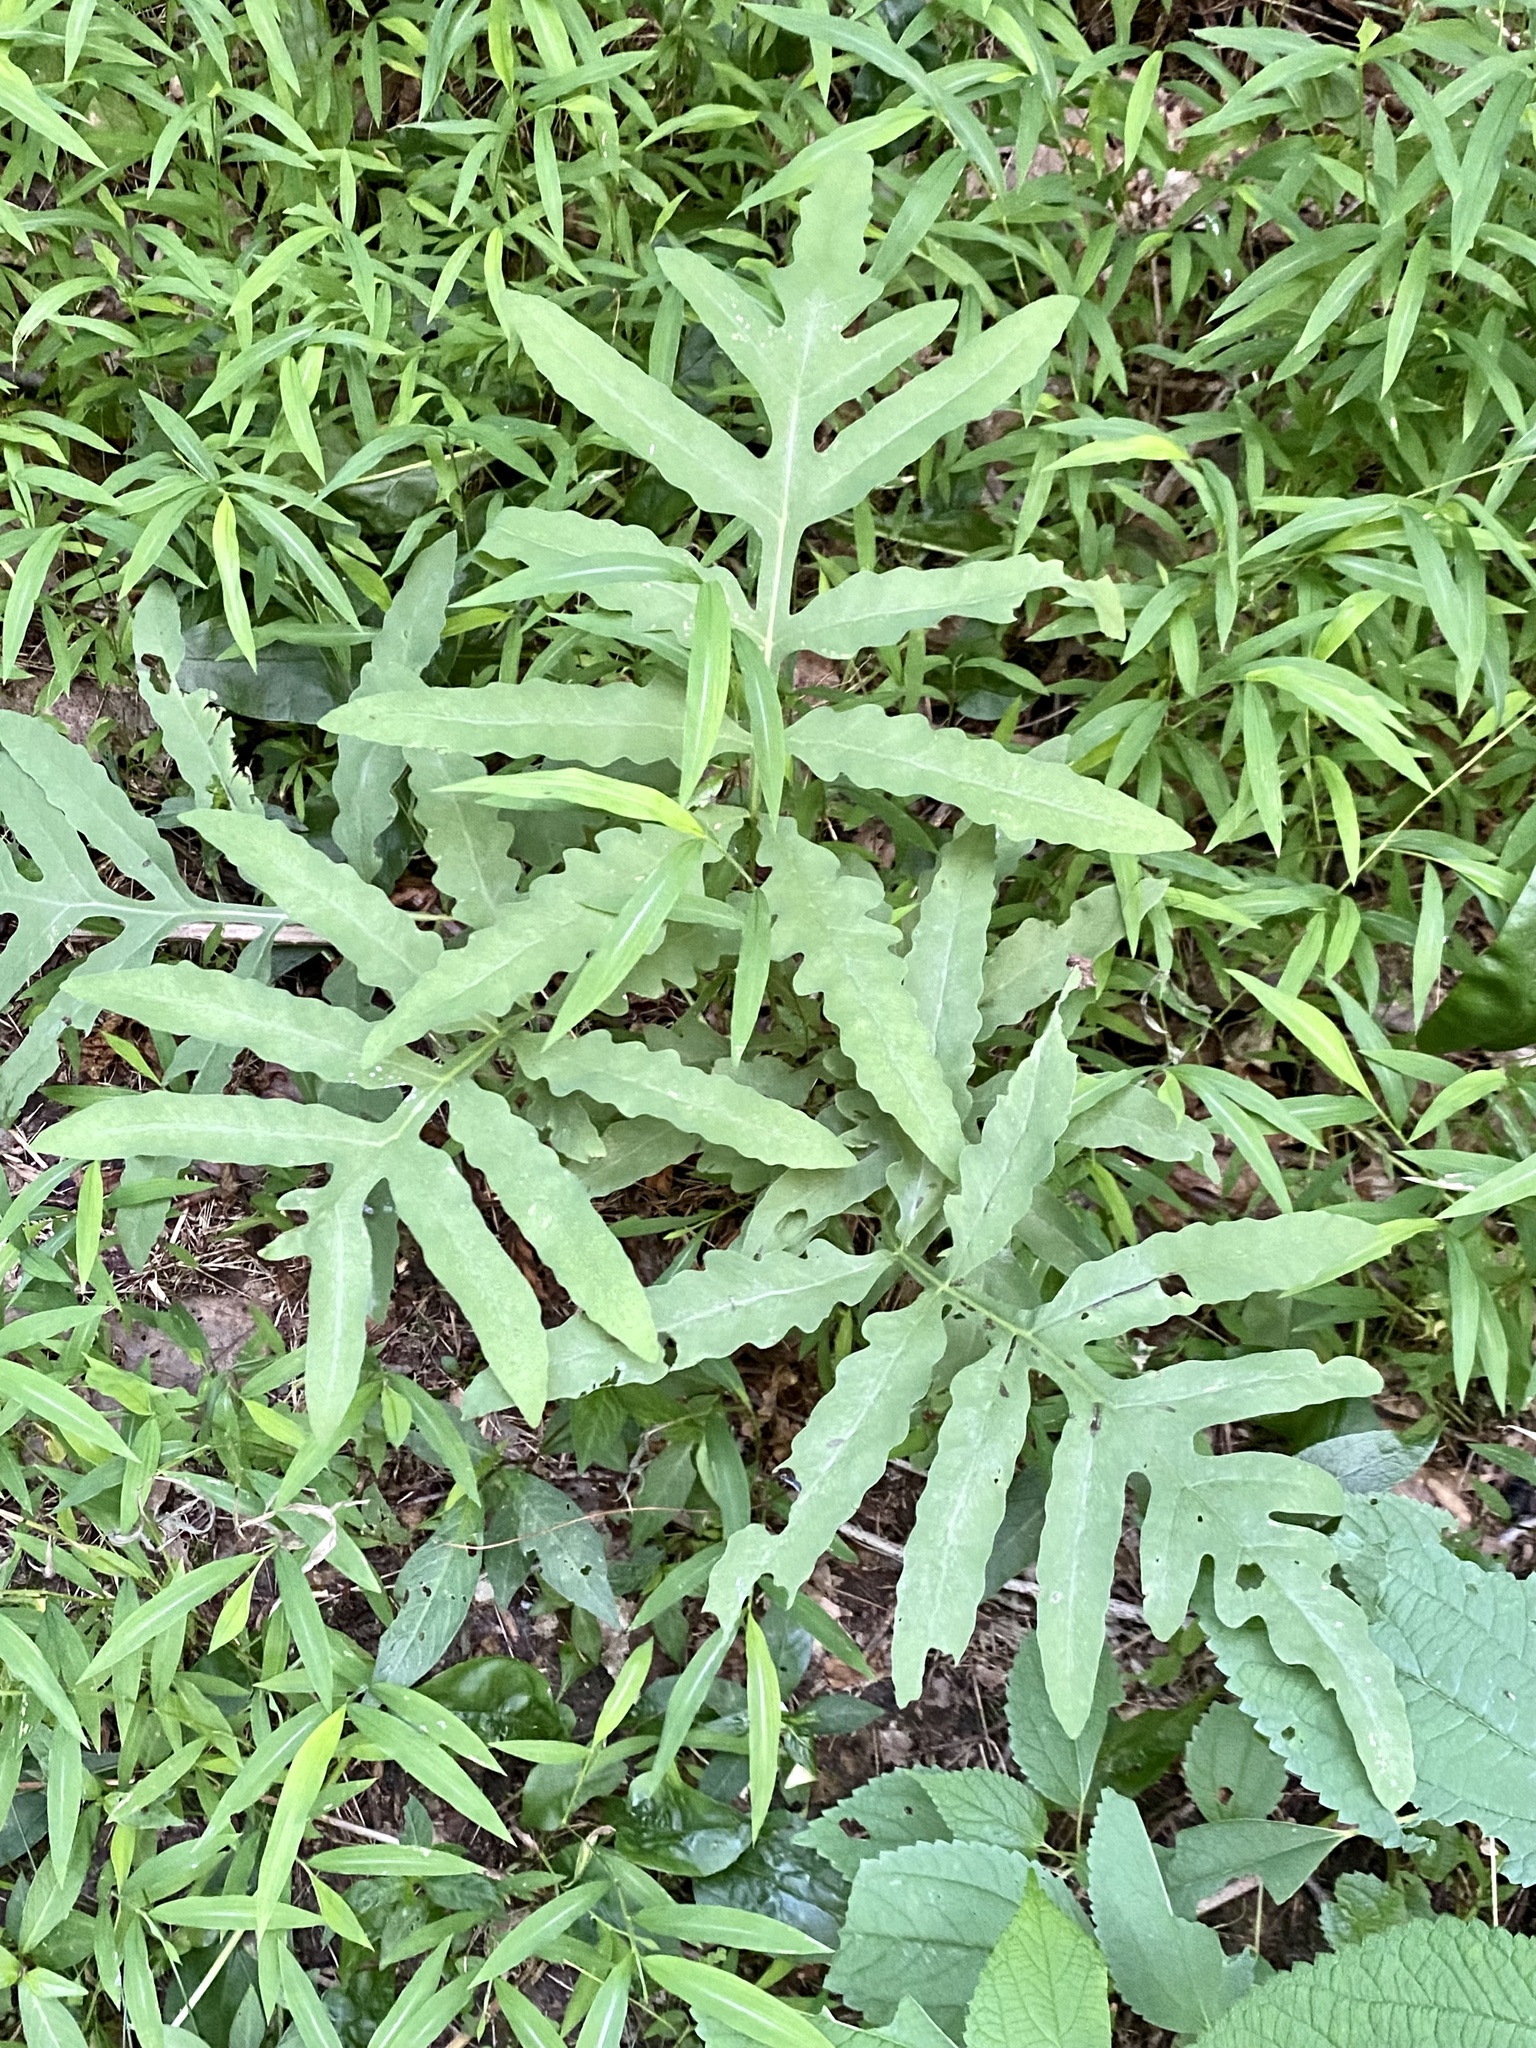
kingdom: Plantae
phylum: Tracheophyta
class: Polypodiopsida
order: Polypodiales
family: Onocleaceae
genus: Onoclea
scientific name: Onoclea sensibilis
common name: Sensitive fern
